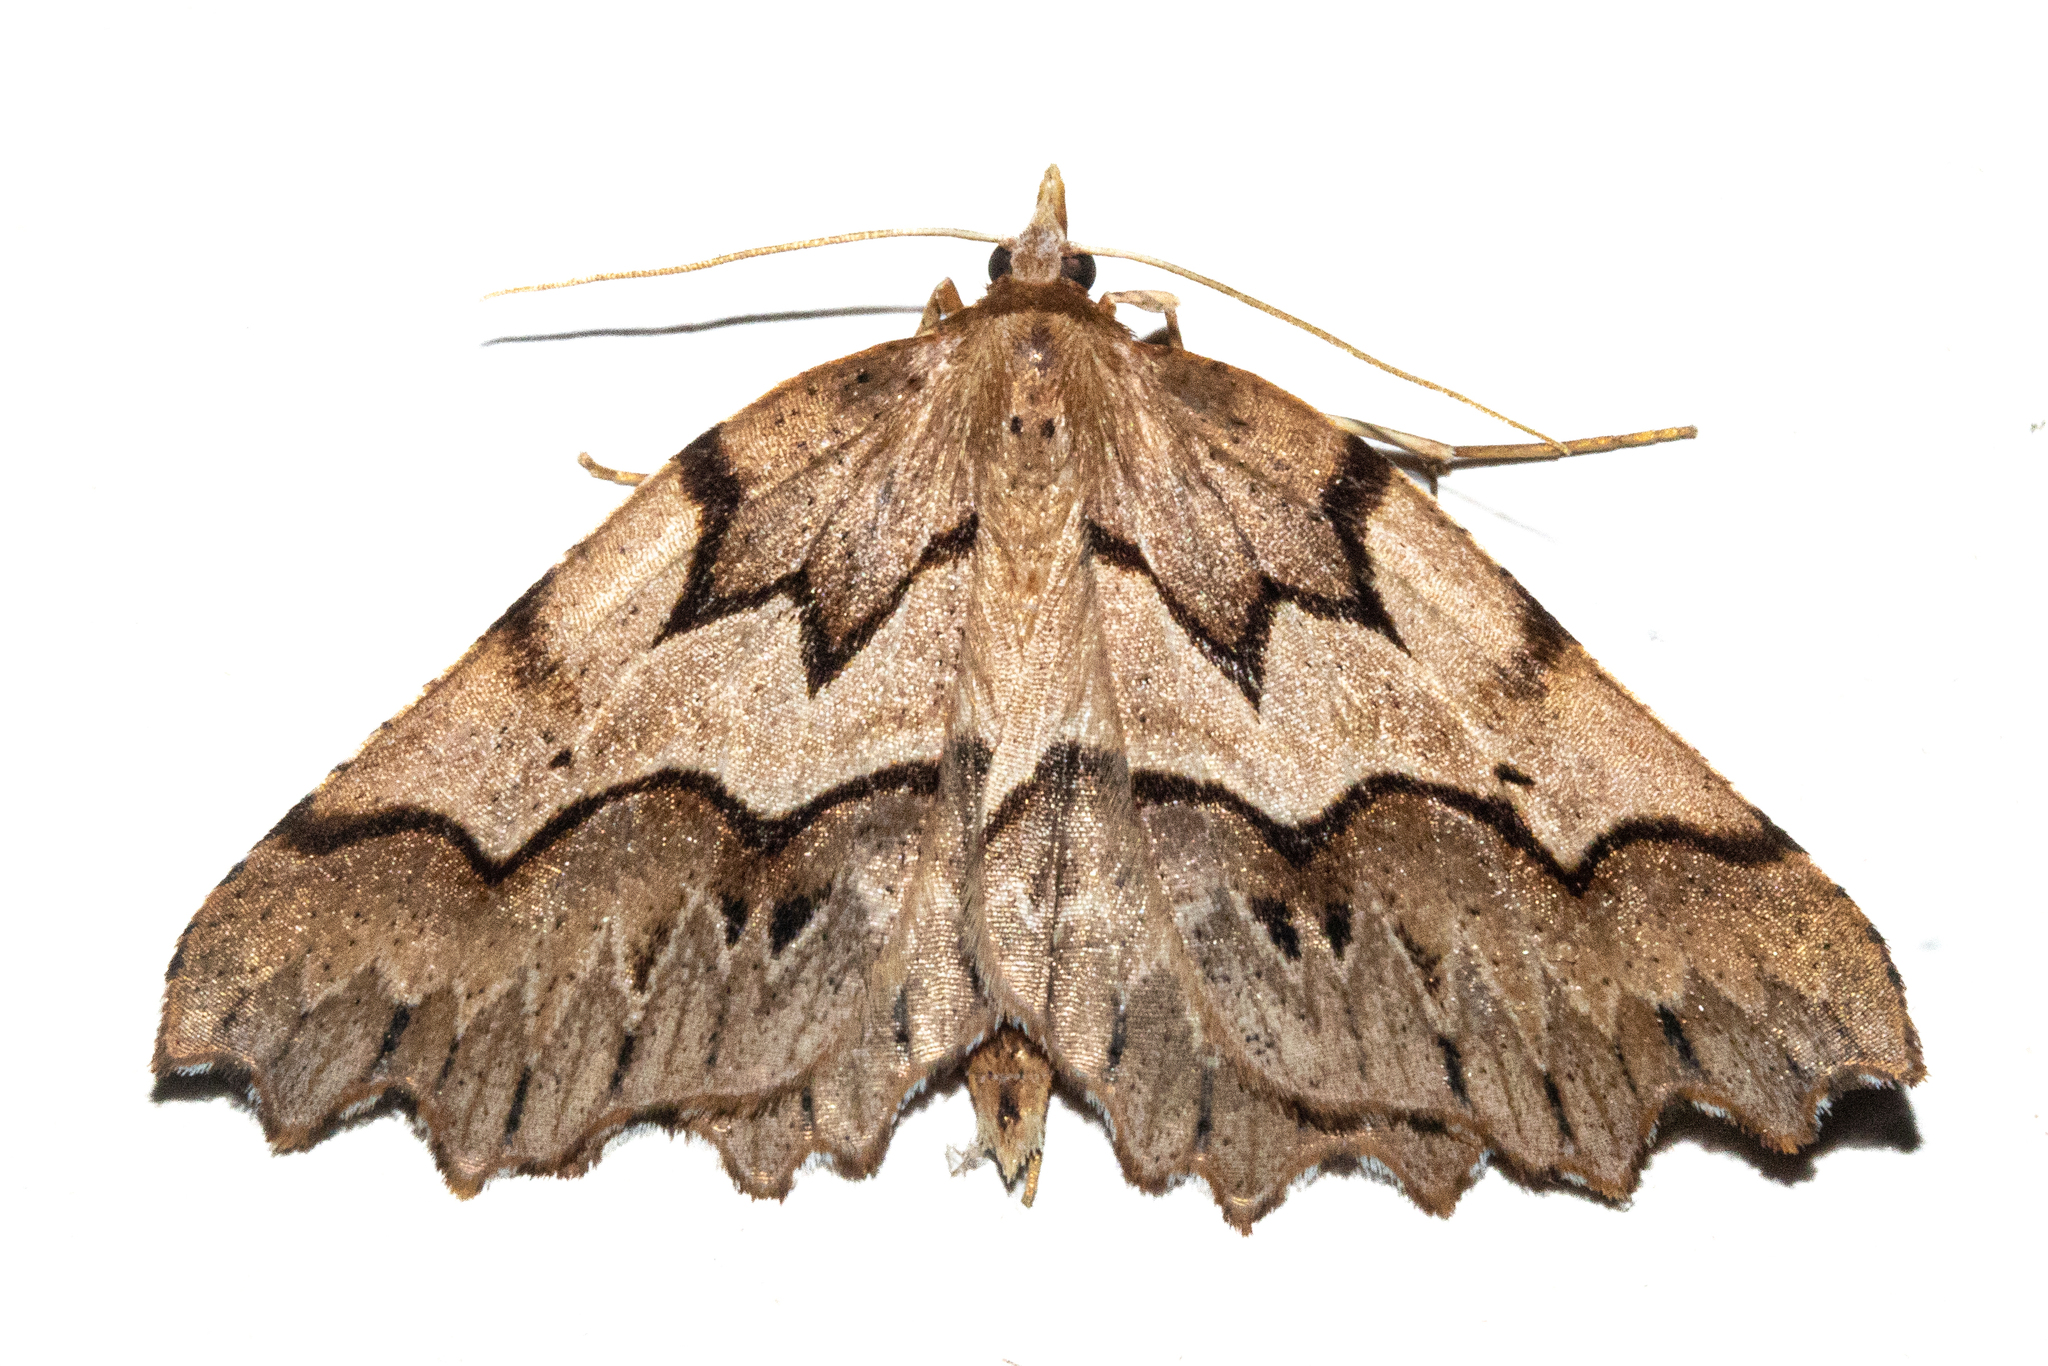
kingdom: Animalia
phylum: Arthropoda
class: Insecta
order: Lepidoptera
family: Geometridae
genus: Ischalis
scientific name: Ischalis fortinata
